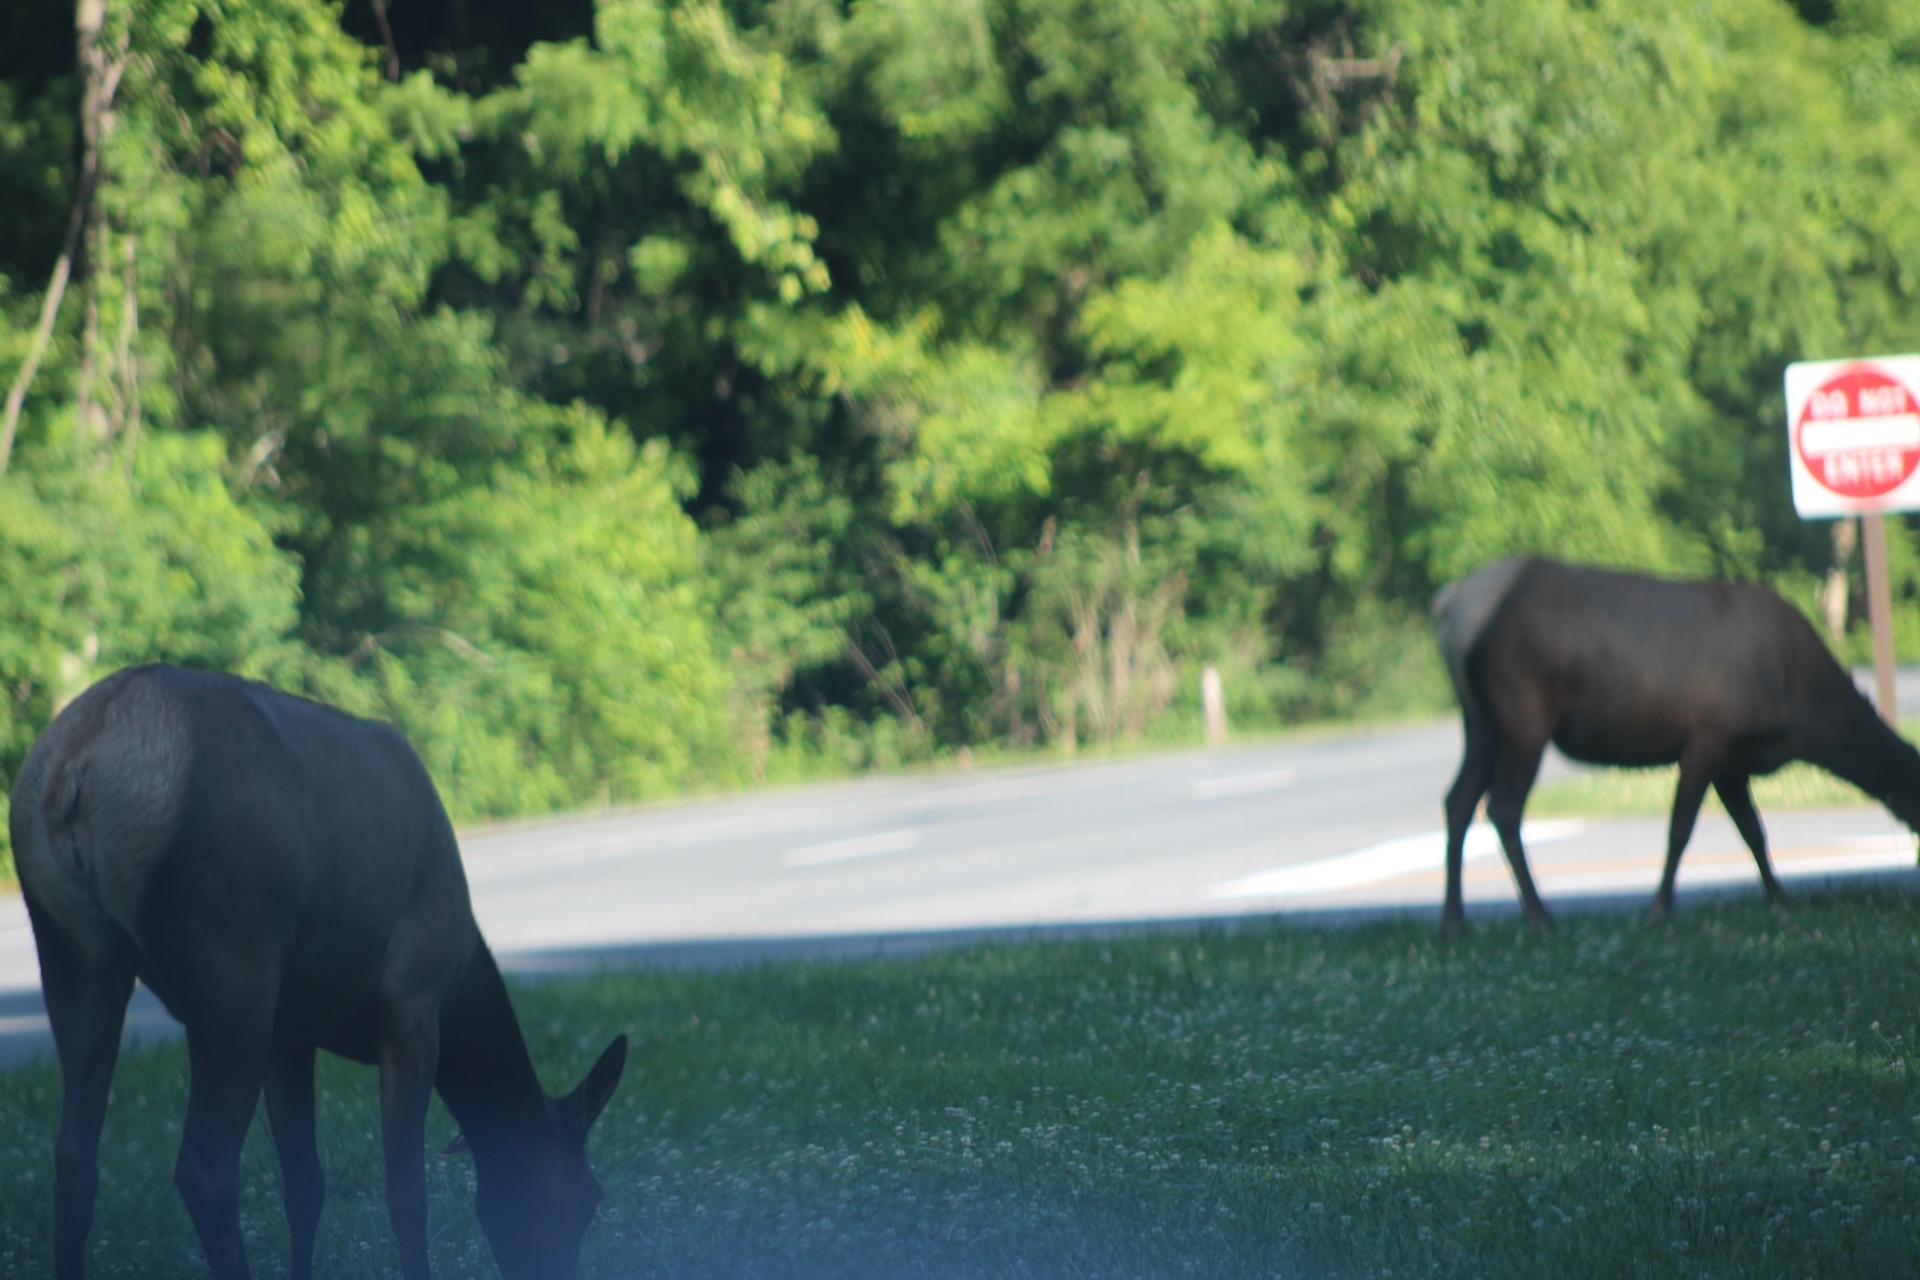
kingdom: Animalia
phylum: Chordata
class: Mammalia
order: Artiodactyla
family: Cervidae
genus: Cervus
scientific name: Cervus elaphus
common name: Red deer
